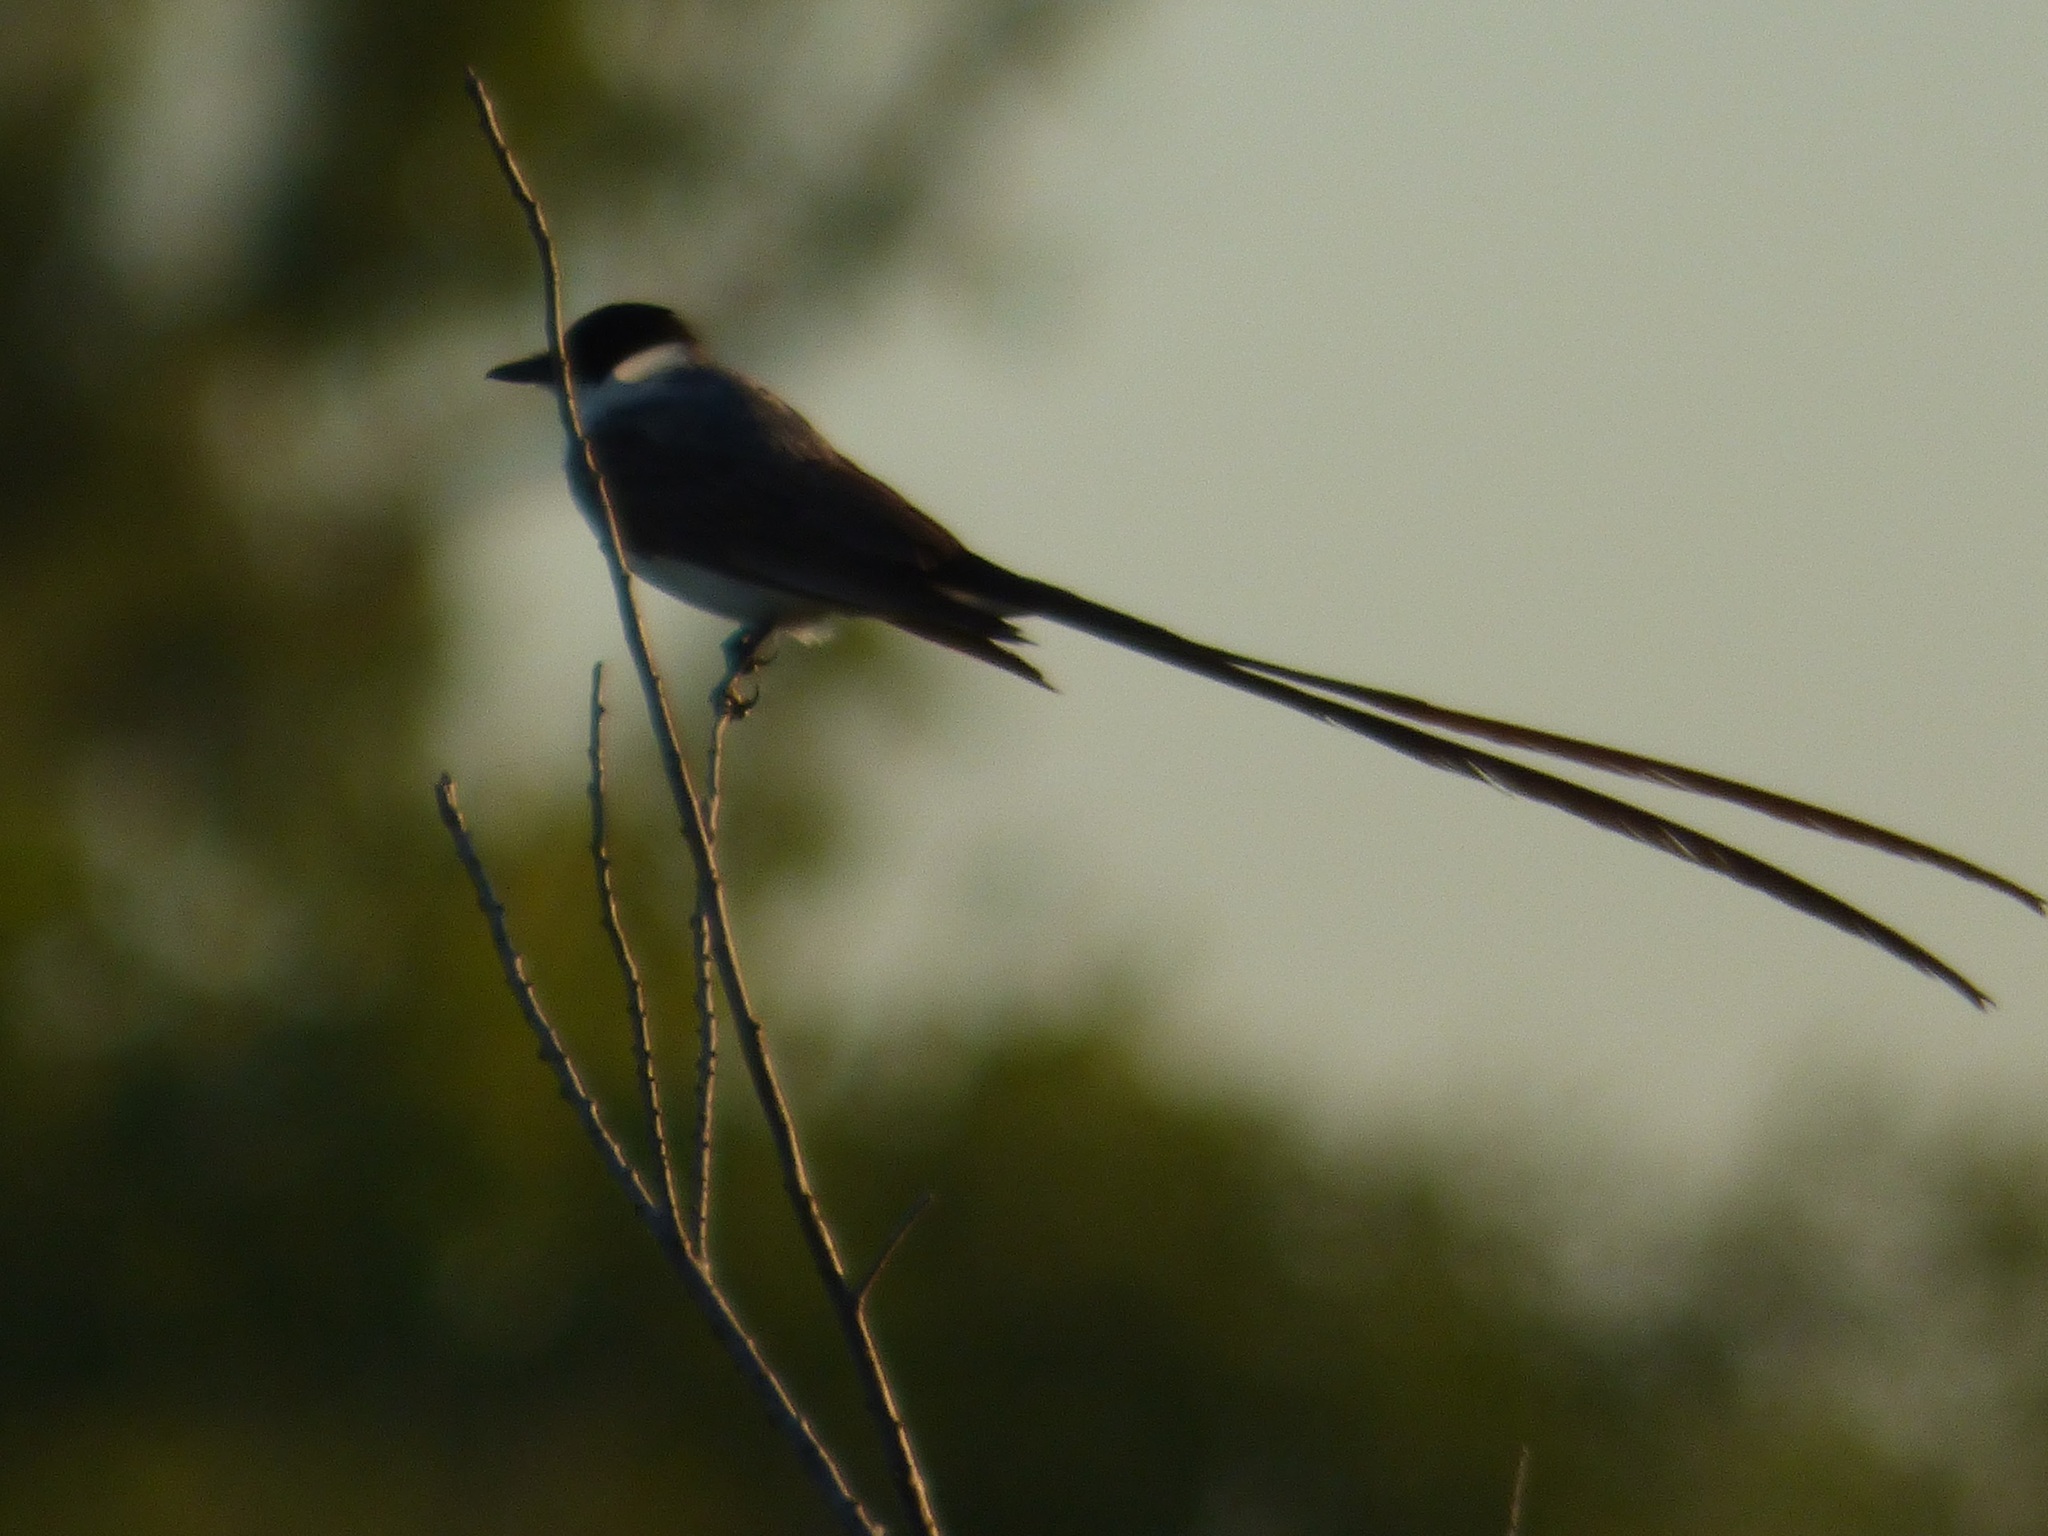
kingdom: Animalia
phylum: Chordata
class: Aves
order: Passeriformes
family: Tyrannidae
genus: Tyrannus
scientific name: Tyrannus savana
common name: Fork-tailed flycatcher
